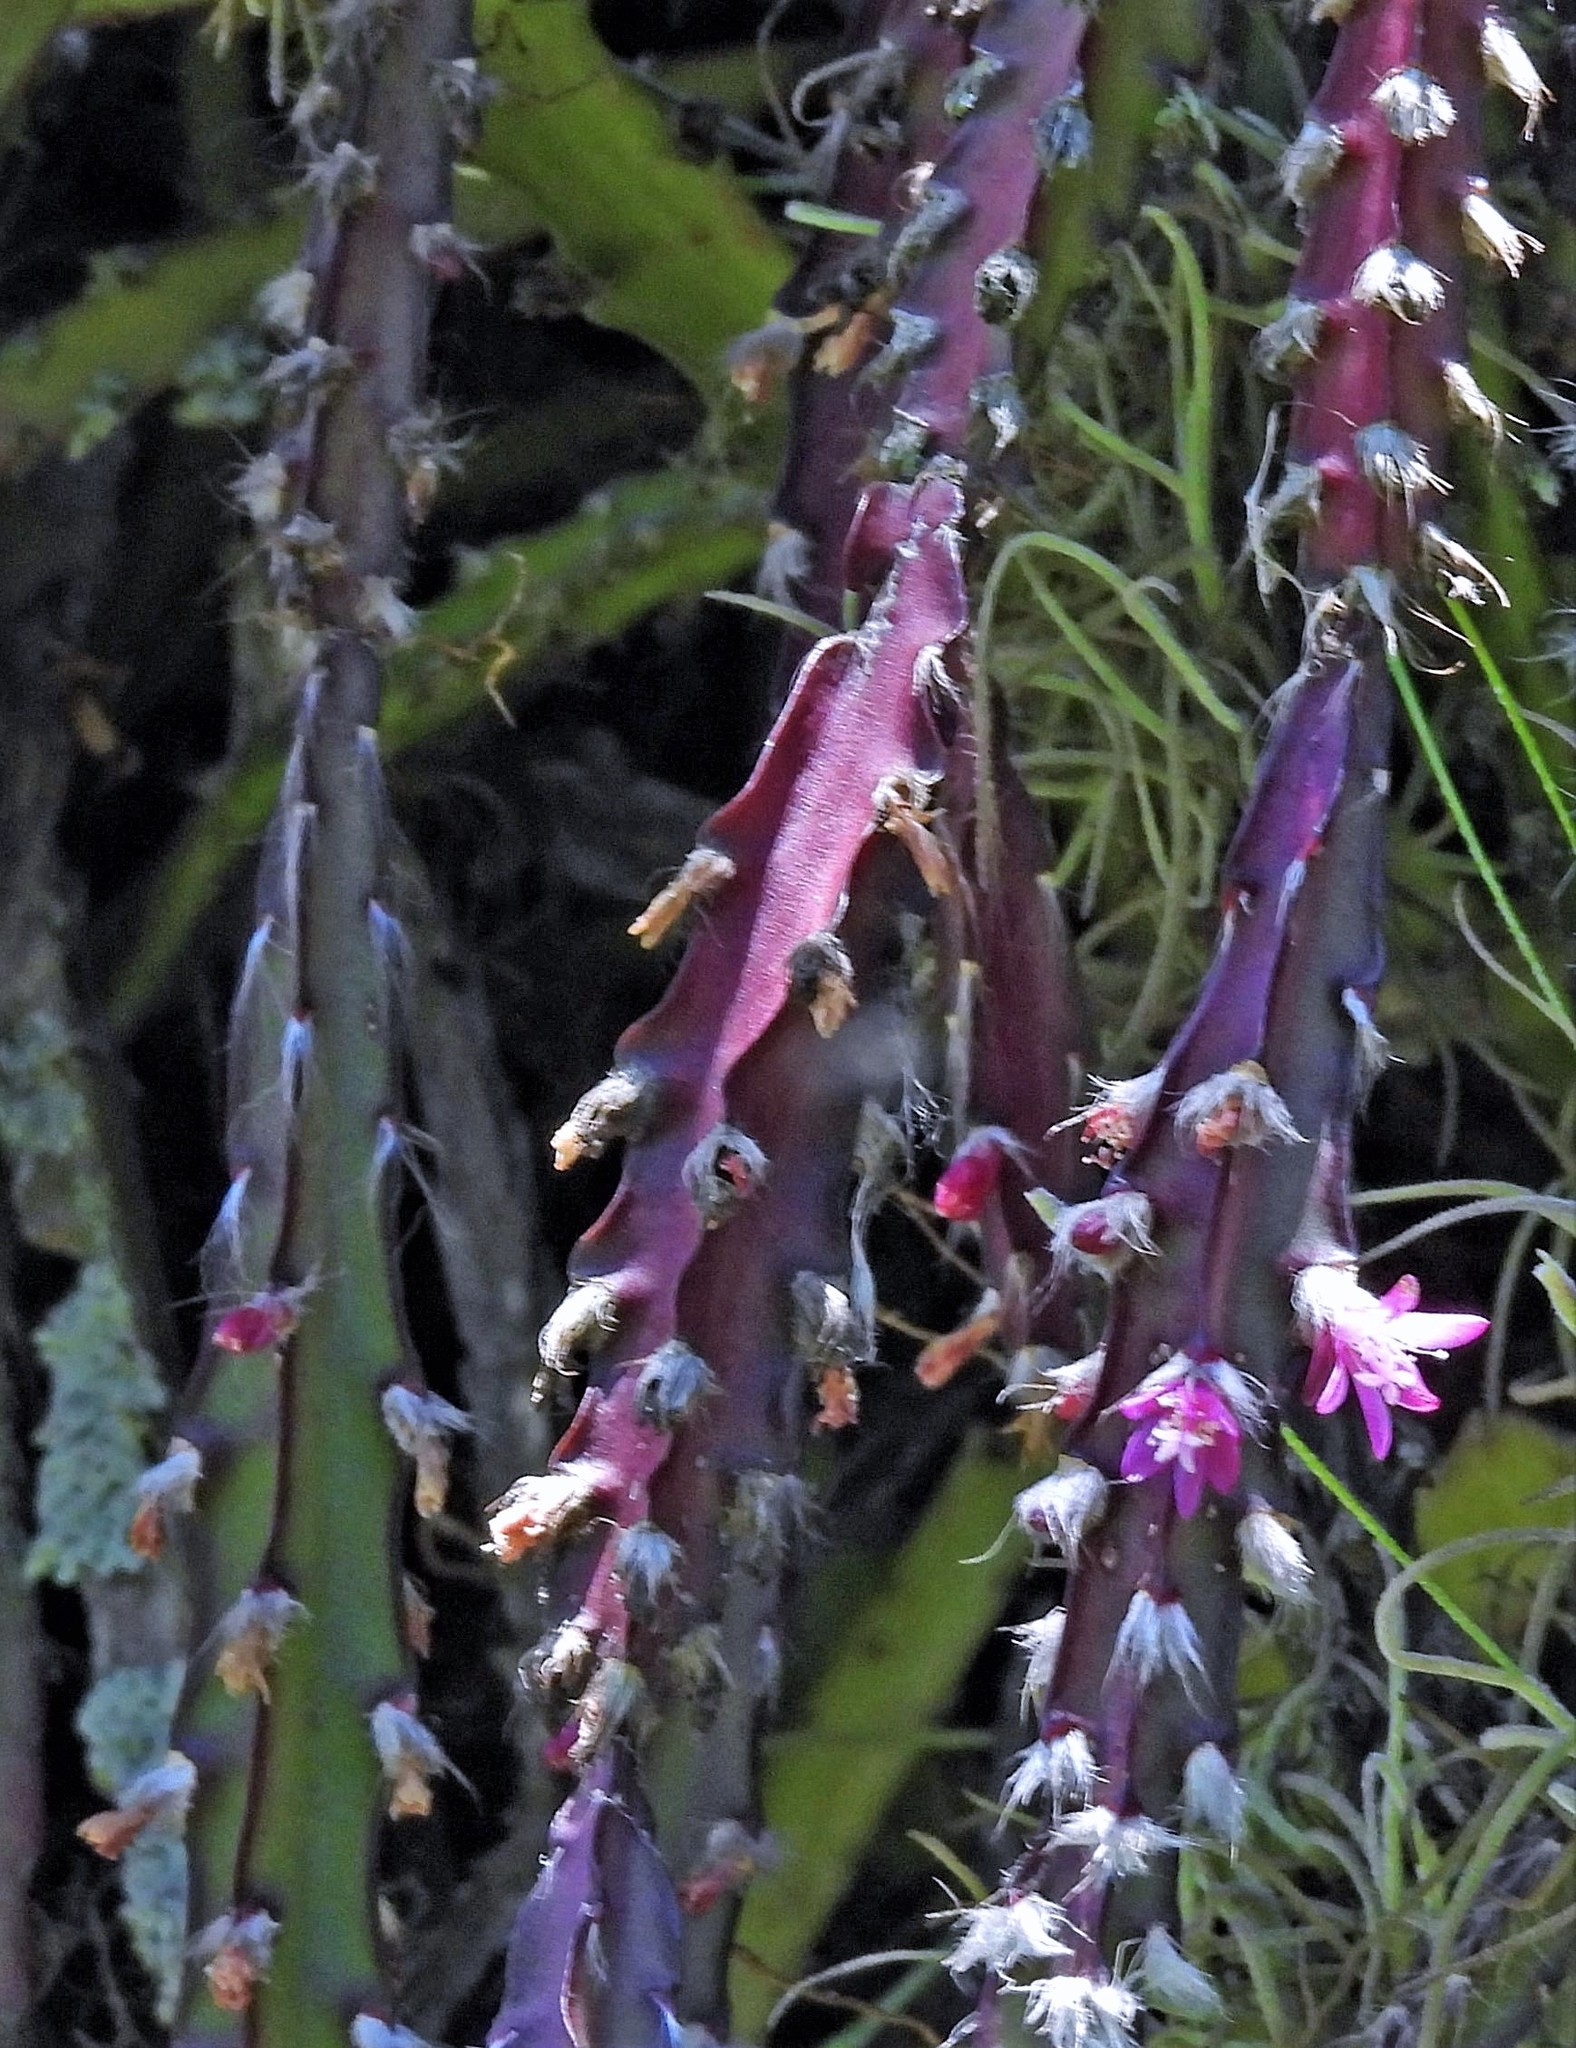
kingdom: Plantae
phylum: Tracheophyta
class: Magnoliopsida
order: Caryophyllales
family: Cactaceae
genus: Lepismium
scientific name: Lepismium cruciforme
